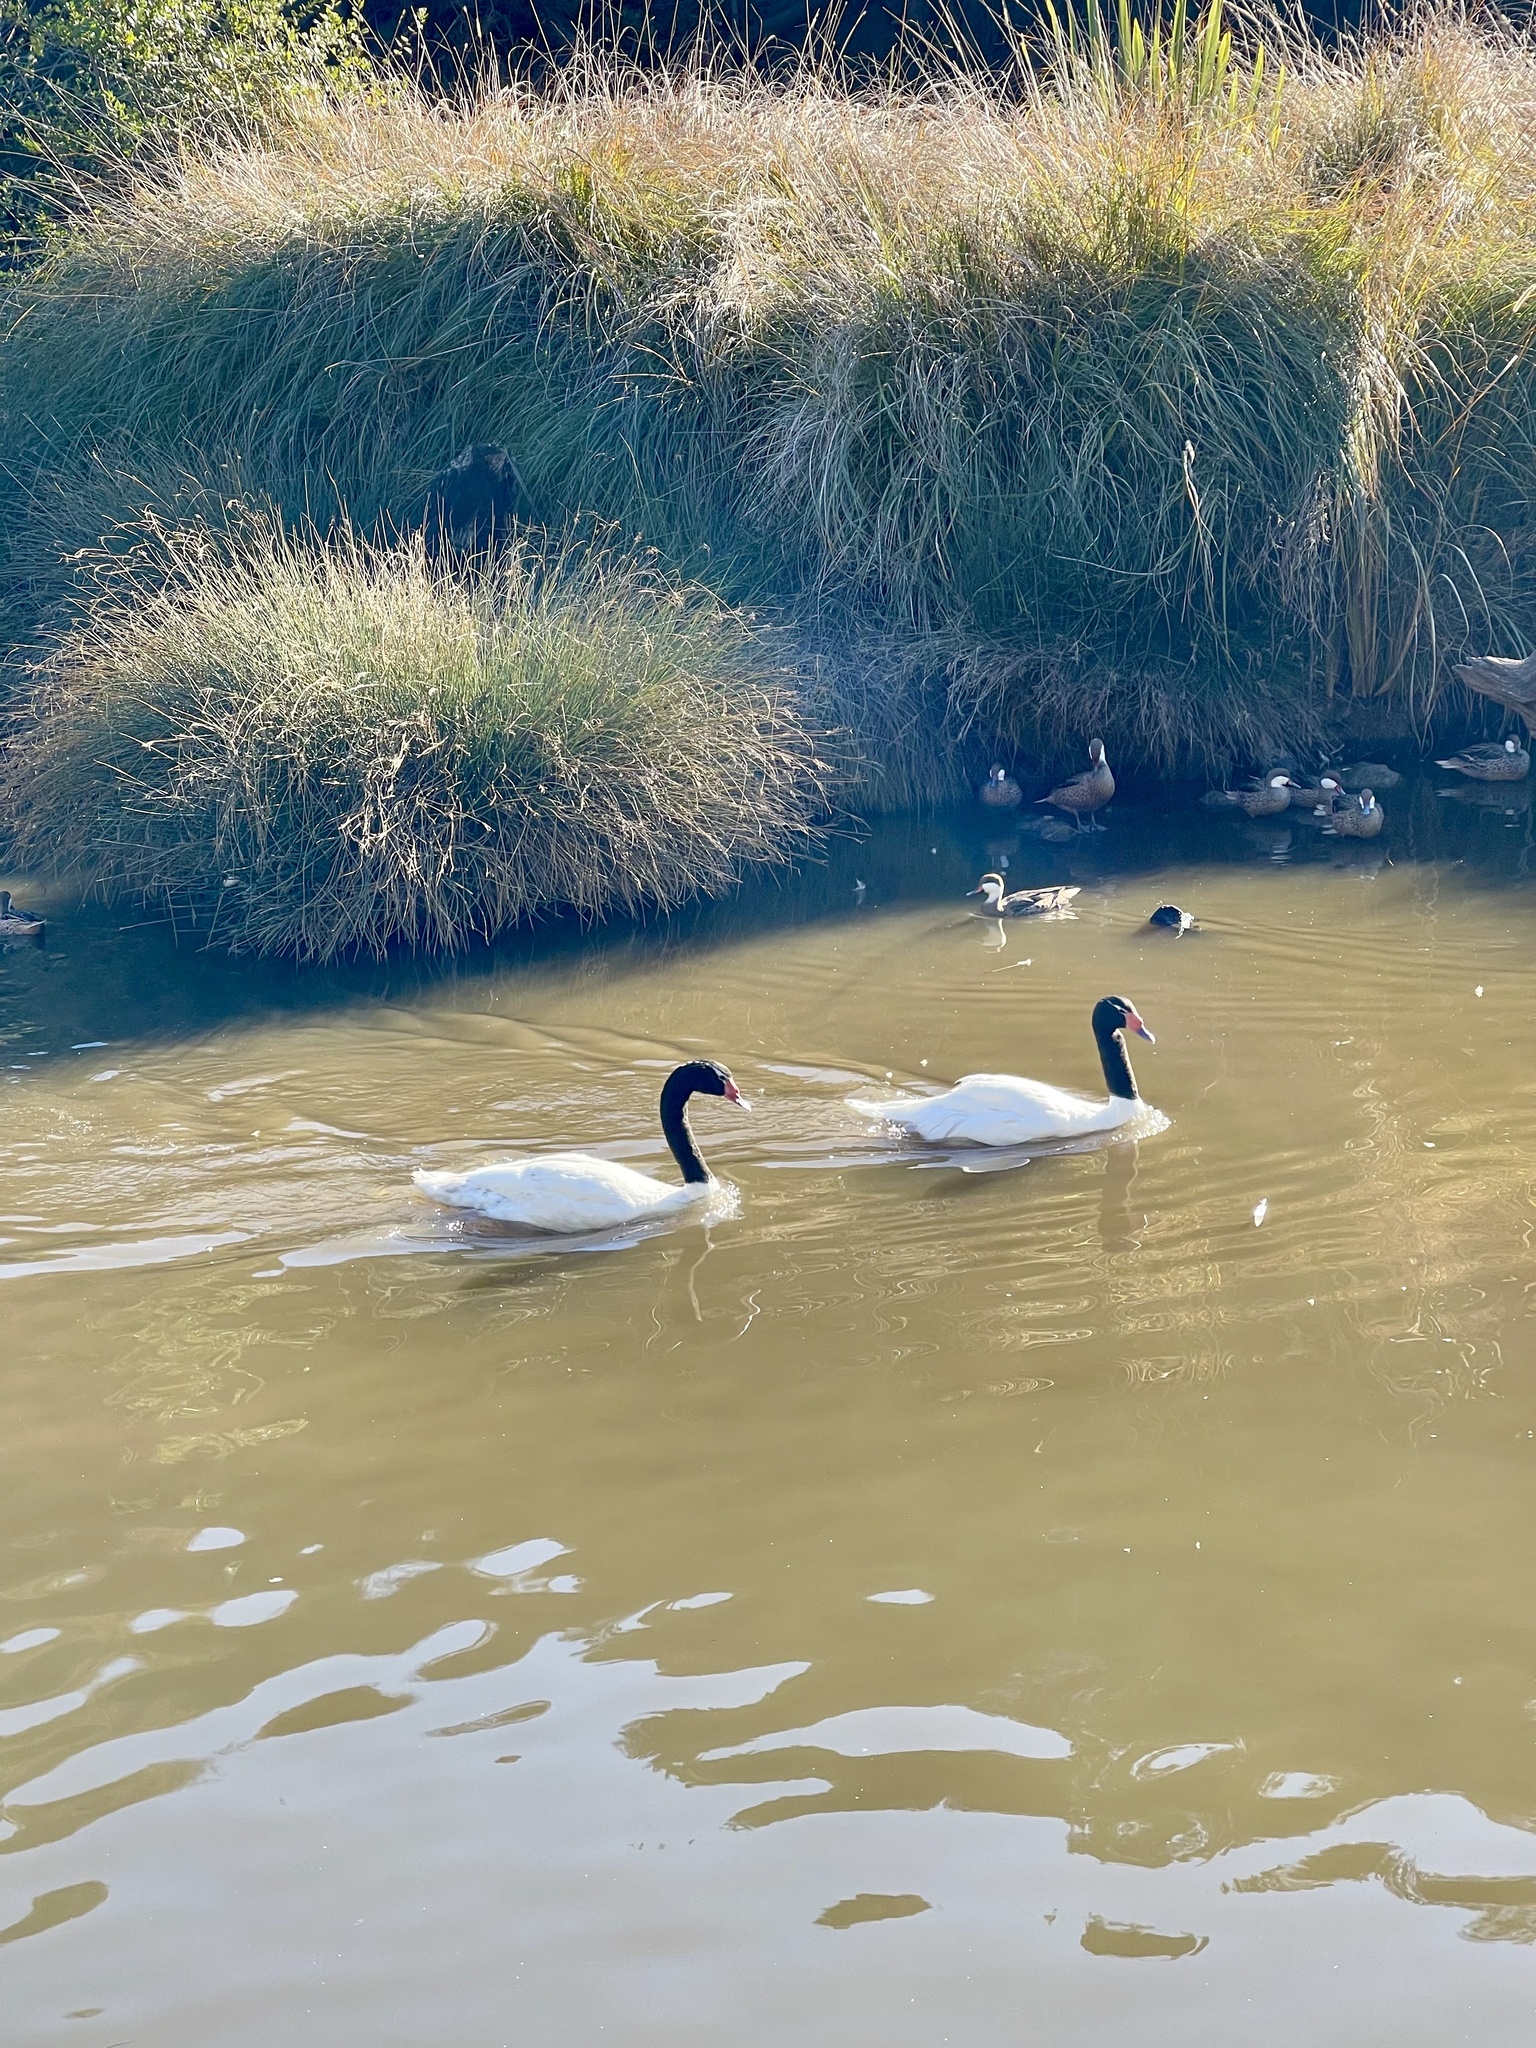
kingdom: Animalia
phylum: Chordata
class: Aves
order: Anseriformes
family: Anatidae
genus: Cygnus
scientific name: Cygnus melancoryphus
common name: Black-necked swan
